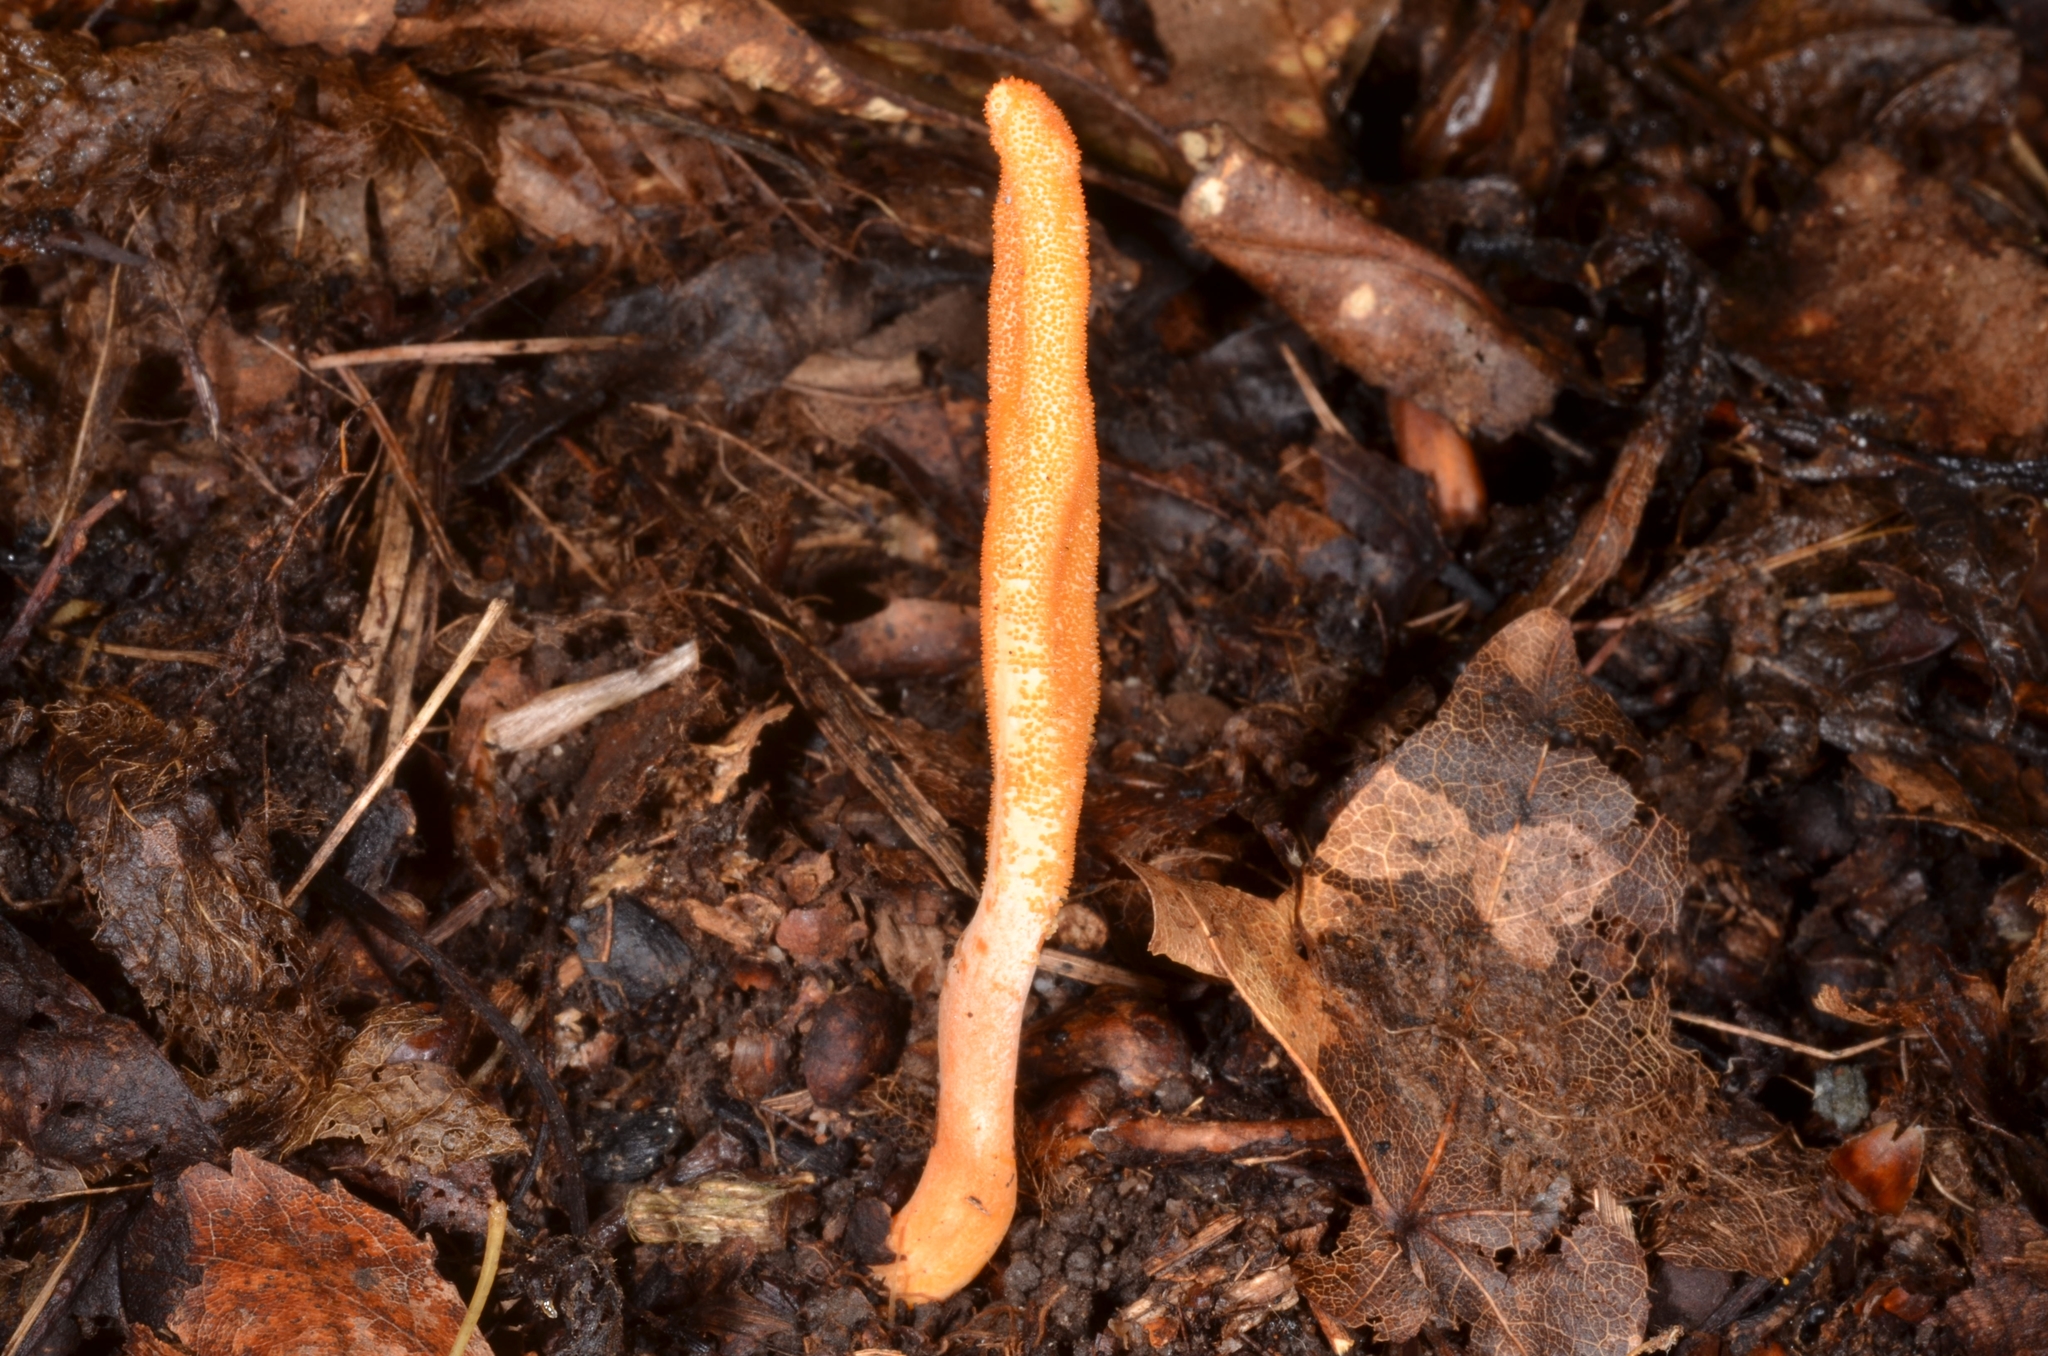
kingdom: Fungi
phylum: Ascomycota
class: Sordariomycetes
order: Hypocreales
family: Cordycipitaceae
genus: Cordyceps
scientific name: Cordyceps militaris
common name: Scarlet caterpillar fungus
